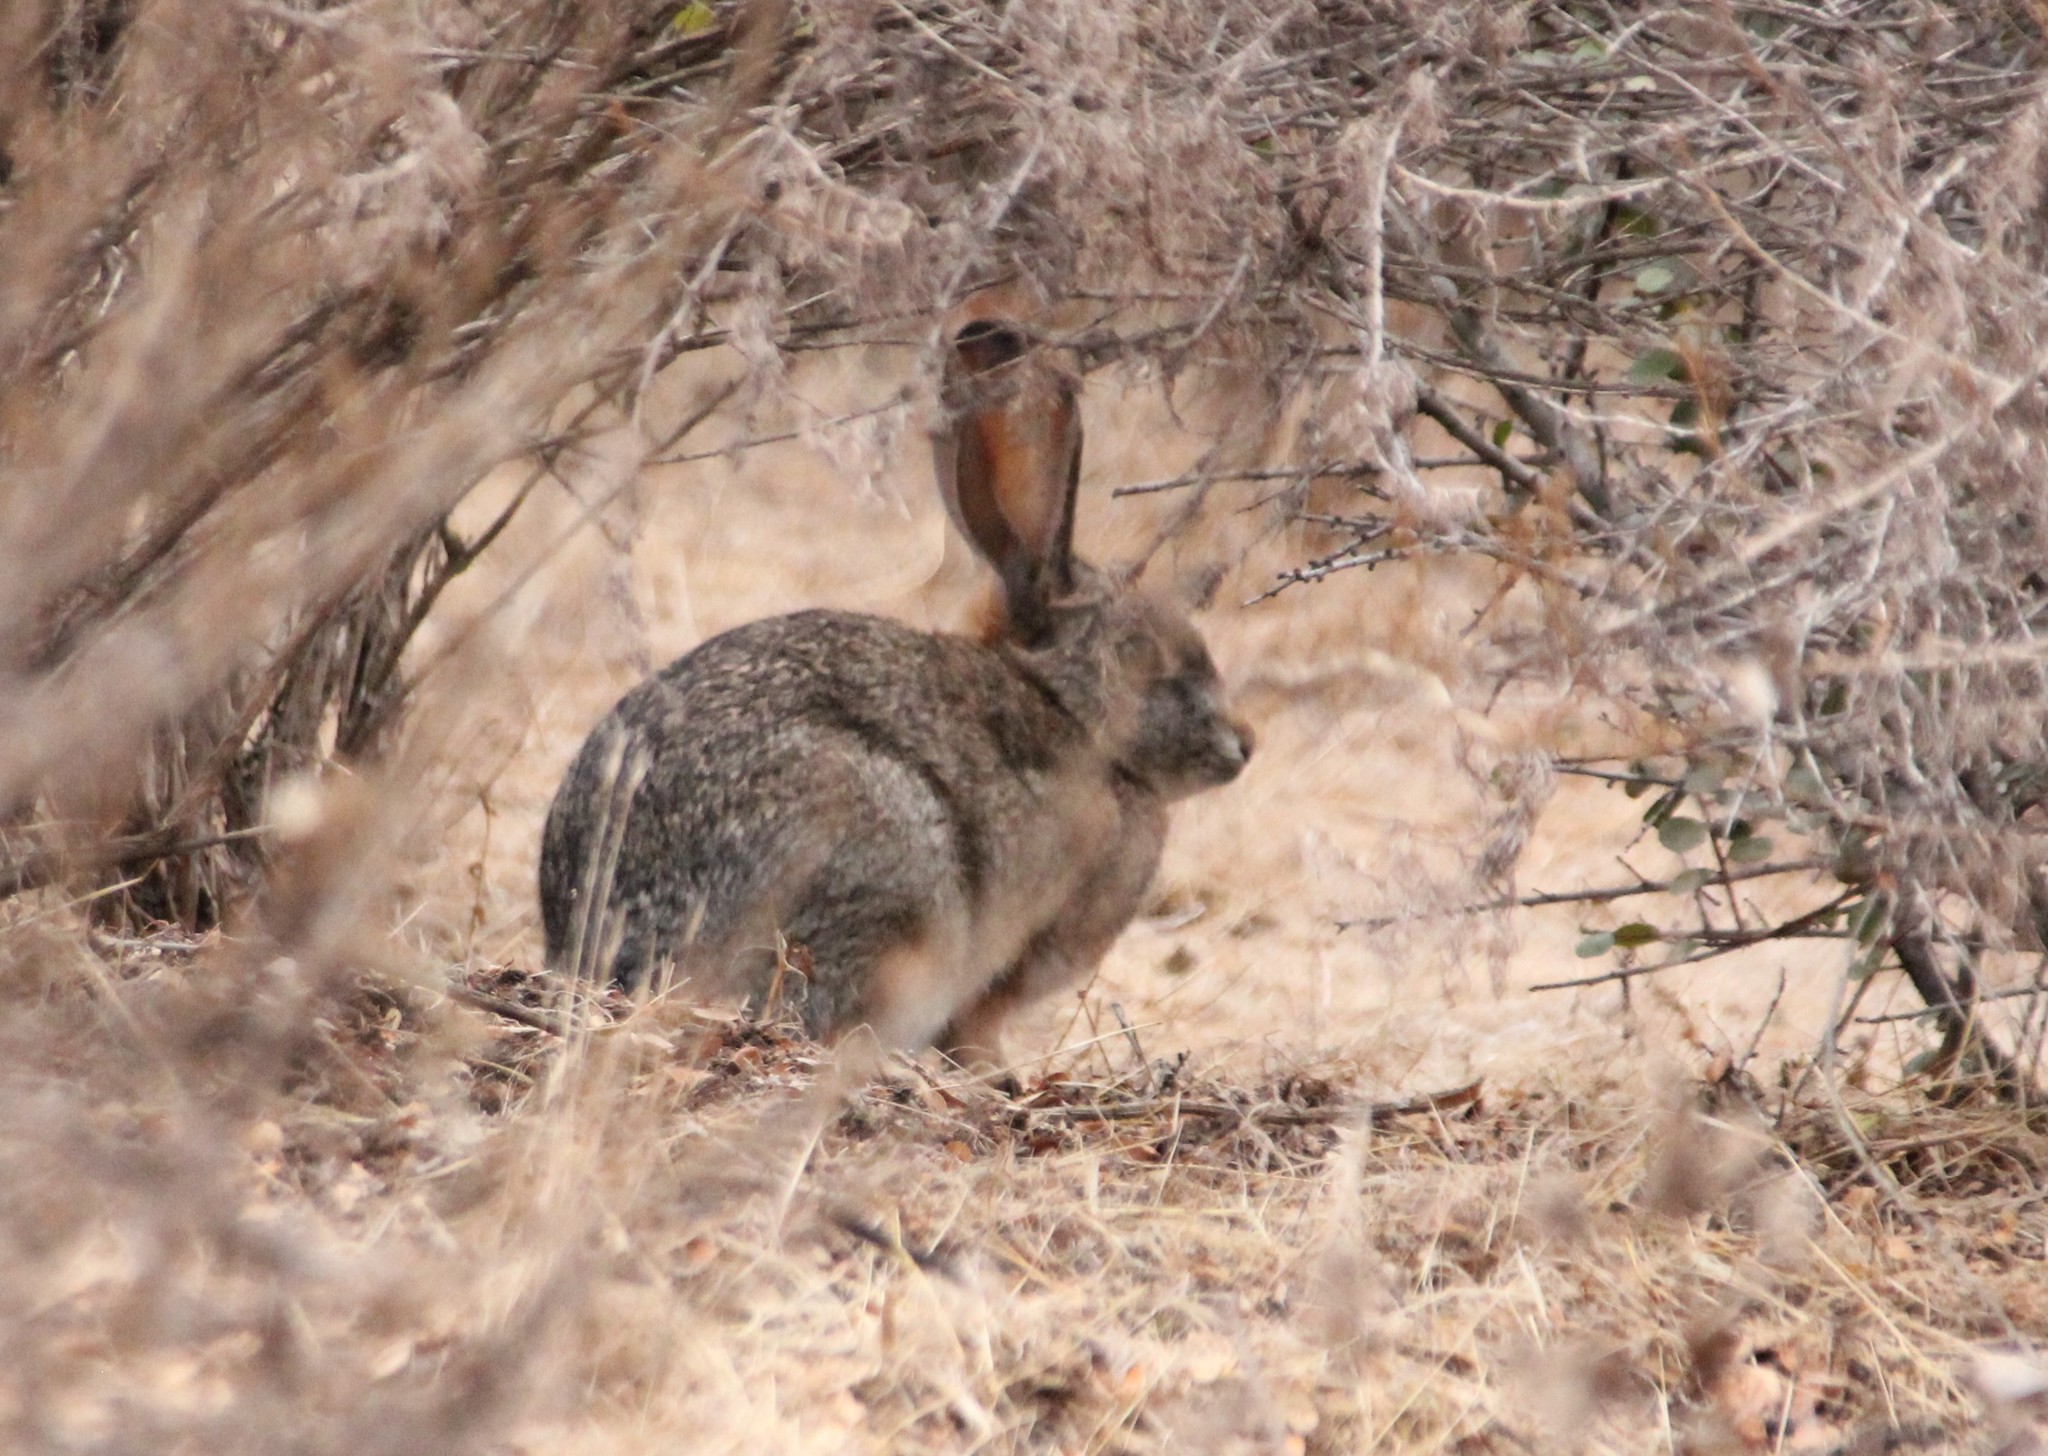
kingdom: Animalia
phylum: Chordata
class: Mammalia
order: Lagomorpha
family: Leporidae
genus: Sylvilagus
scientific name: Sylvilagus audubonii
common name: Desert cottontail
